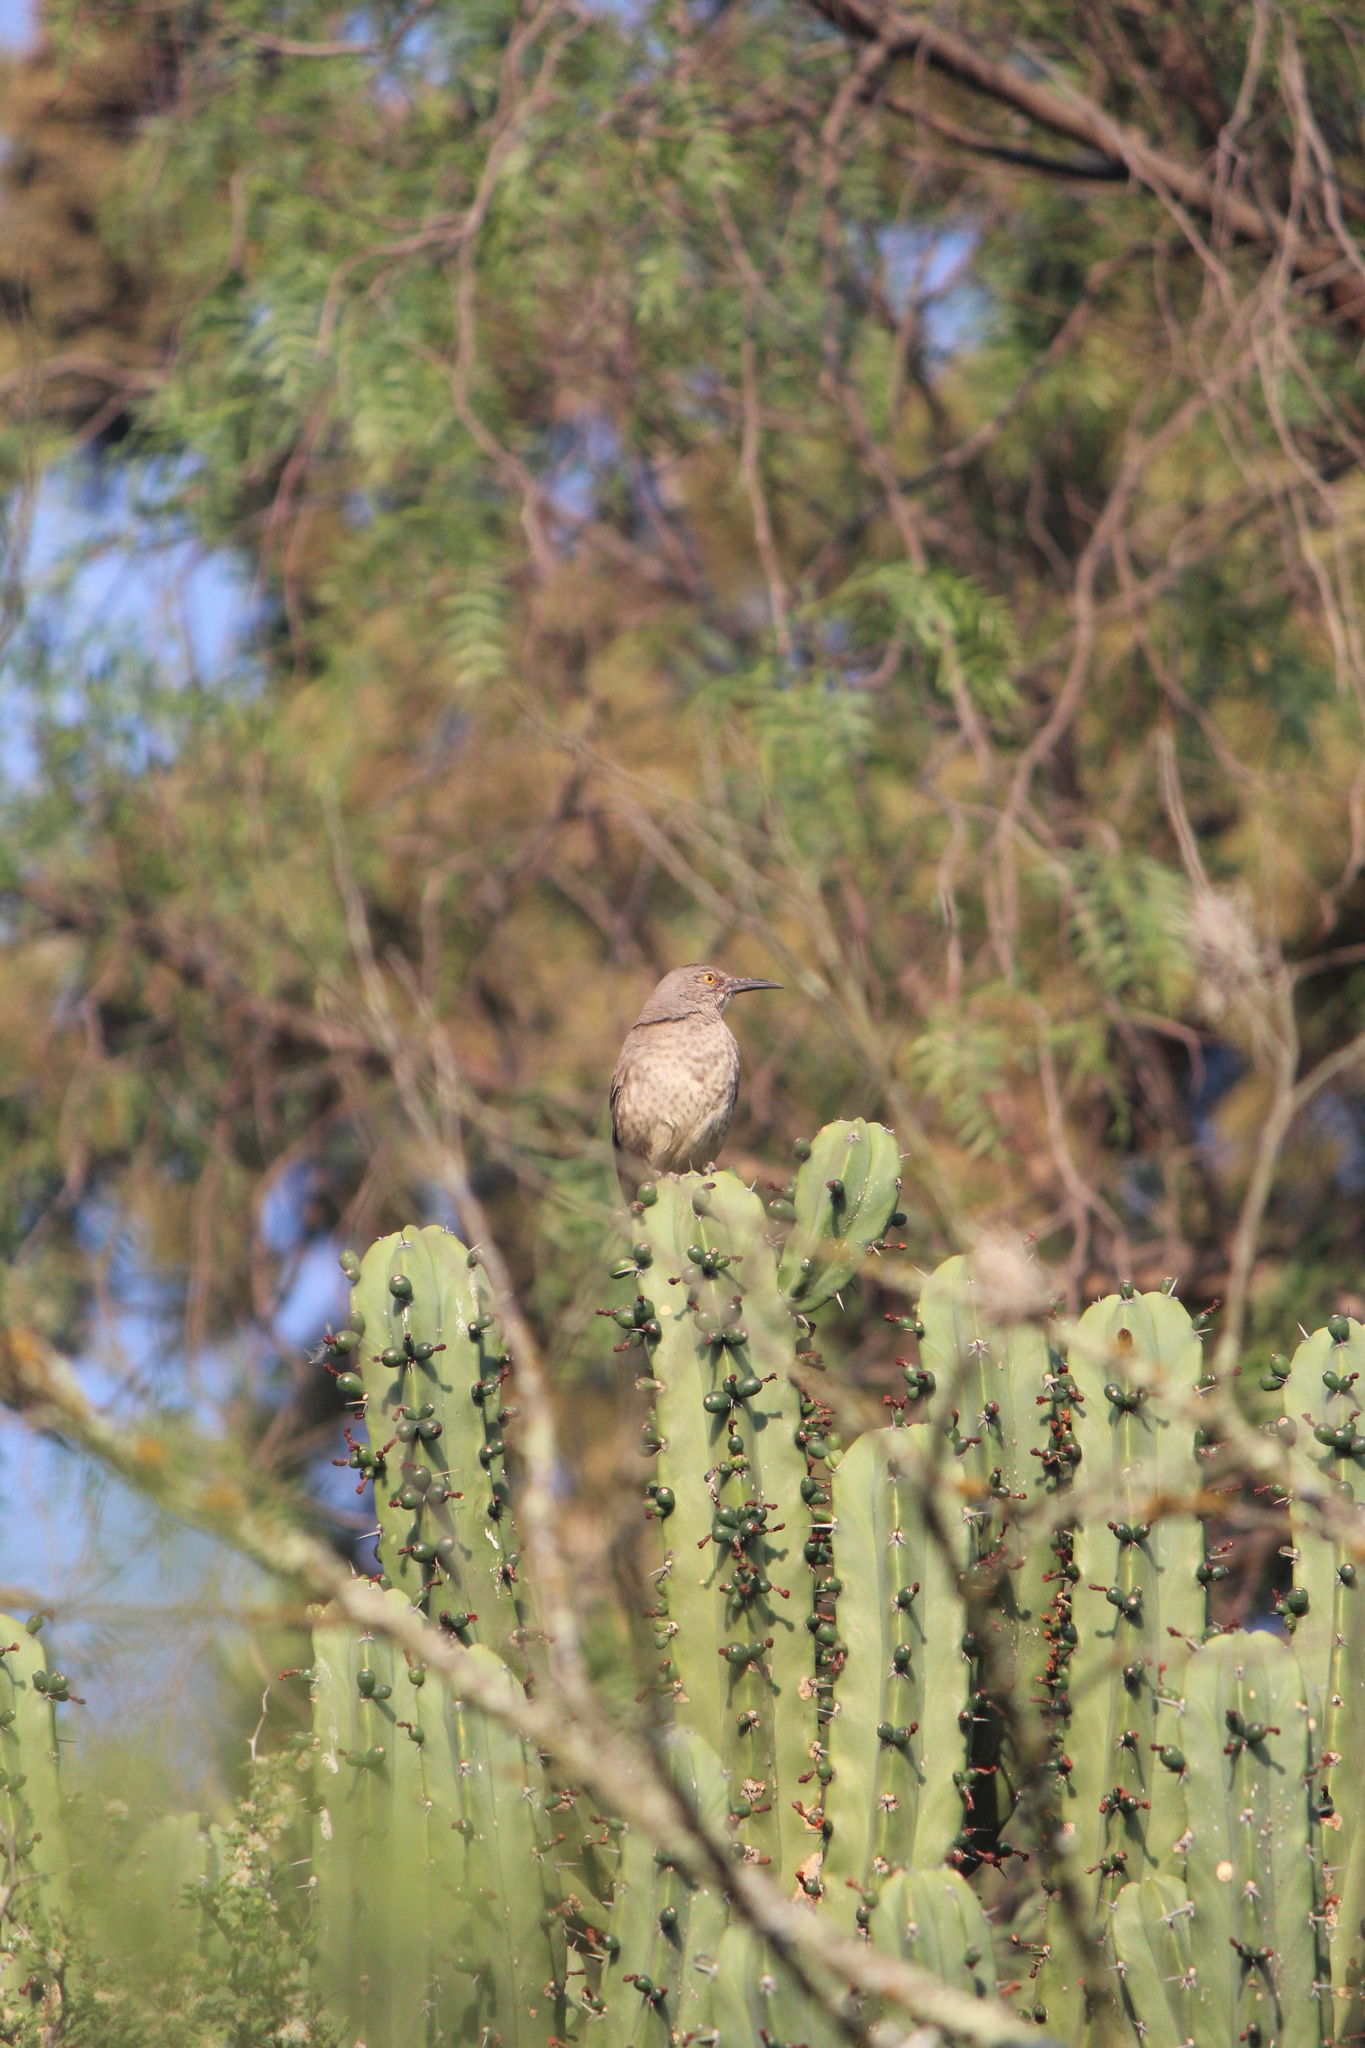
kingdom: Animalia
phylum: Chordata
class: Aves
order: Passeriformes
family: Mimidae
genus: Toxostoma
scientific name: Toxostoma curvirostre
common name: Curve-billed thrasher
